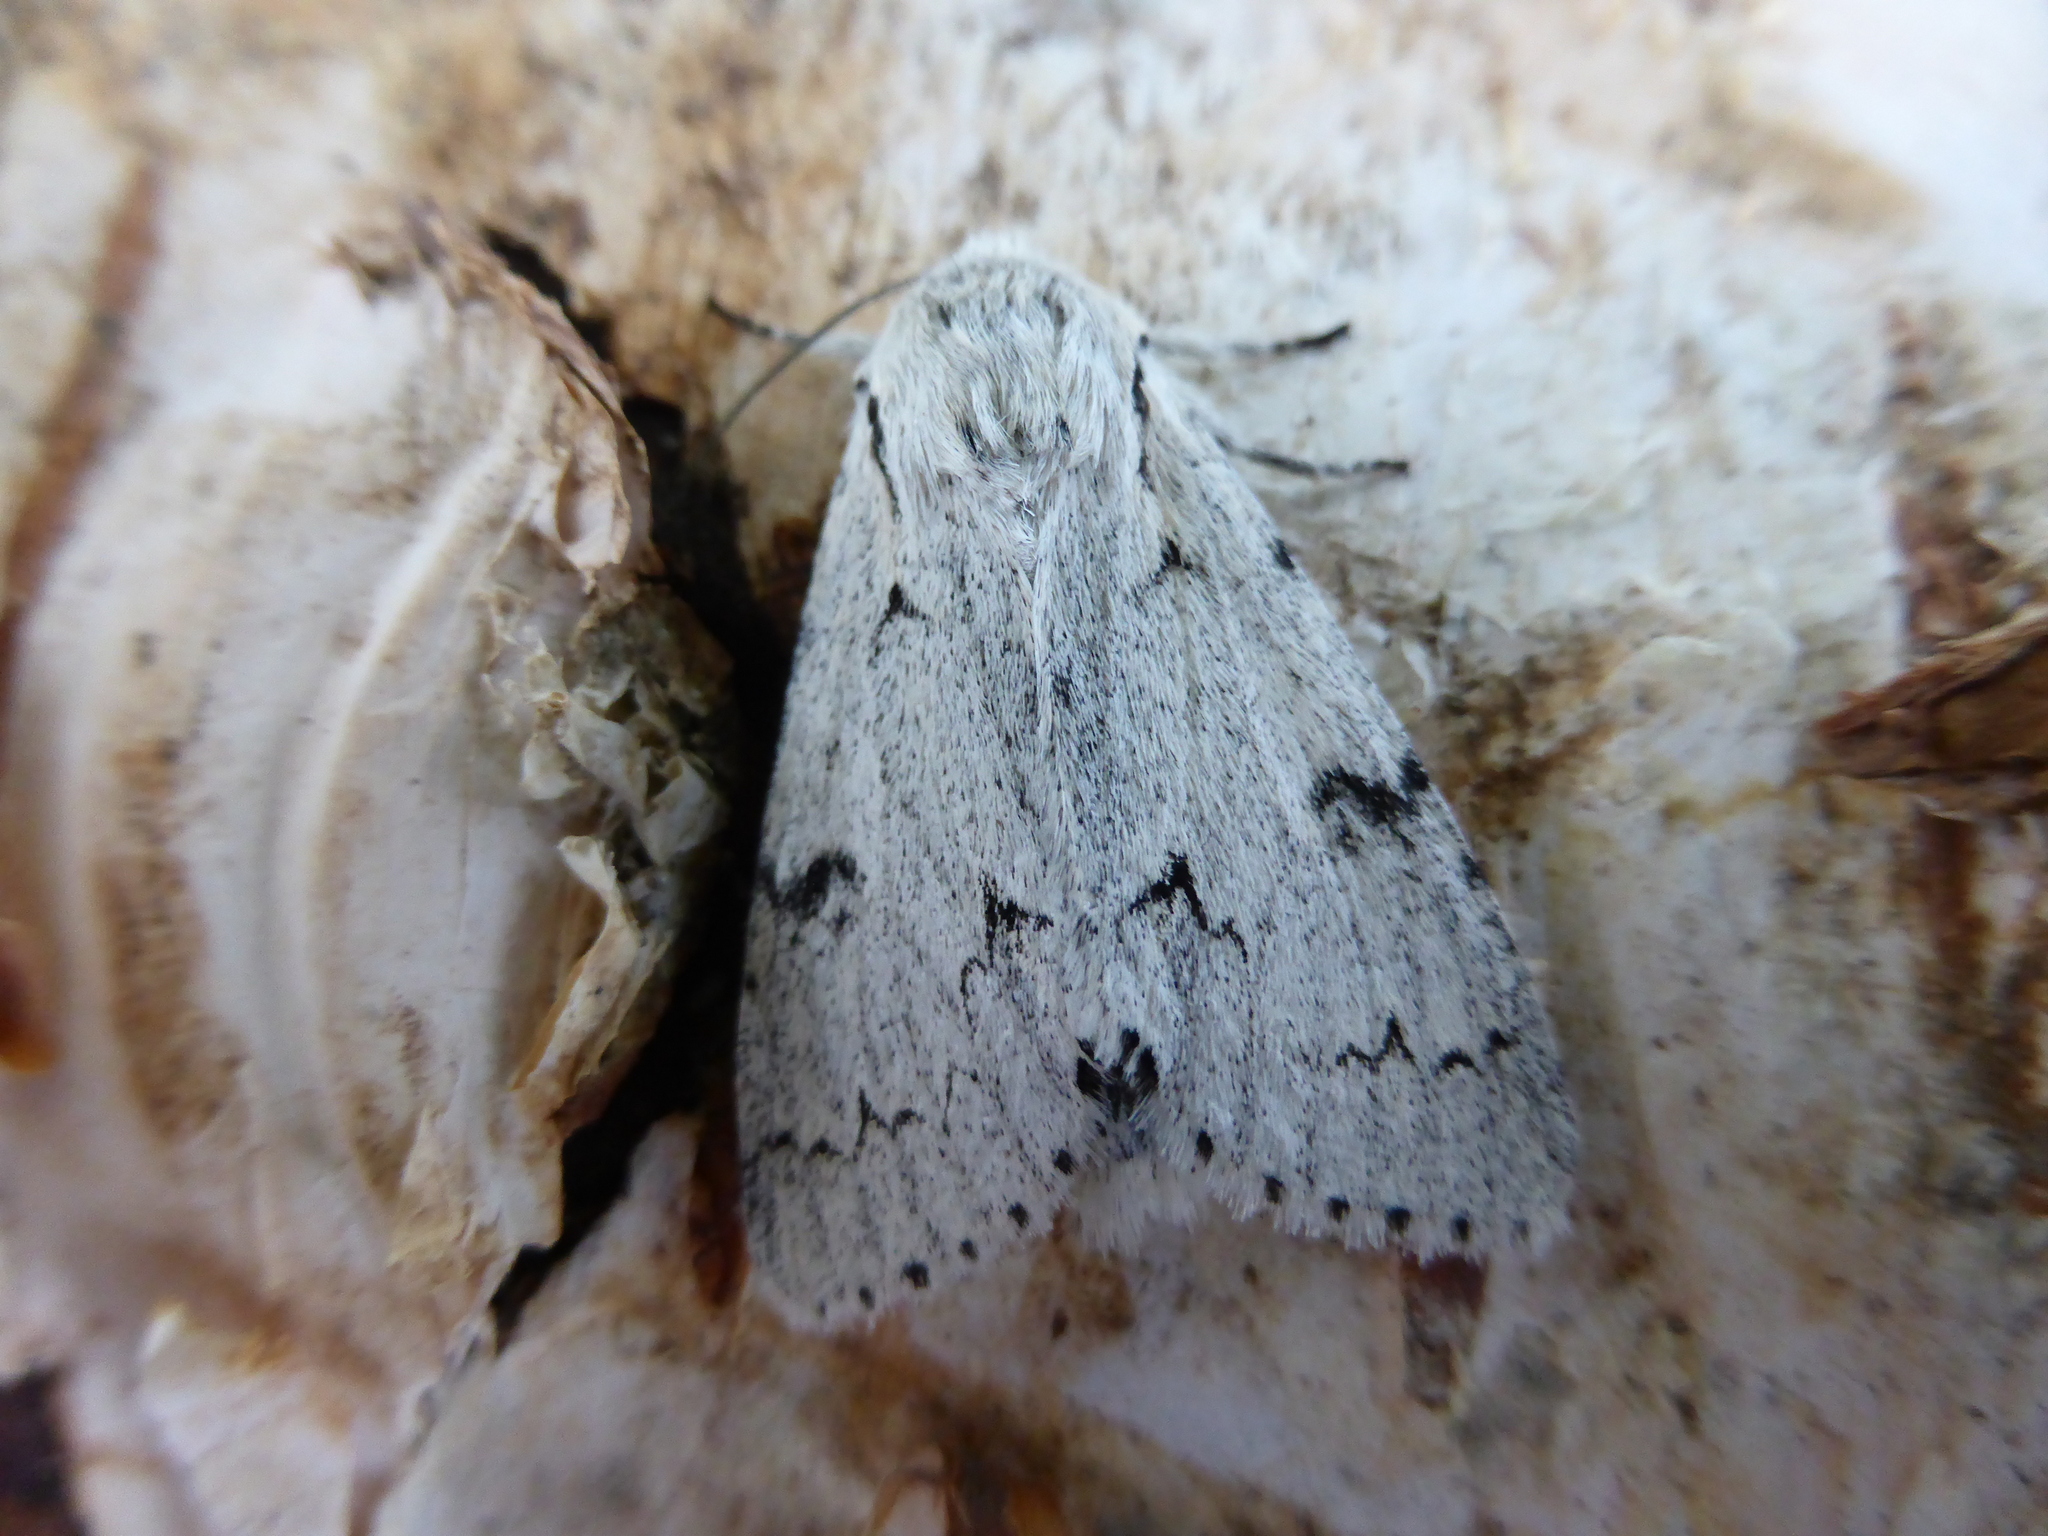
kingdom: Animalia
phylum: Arthropoda
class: Insecta
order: Lepidoptera
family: Noctuidae
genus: Acronicta
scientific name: Acronicta leporina
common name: Miller
